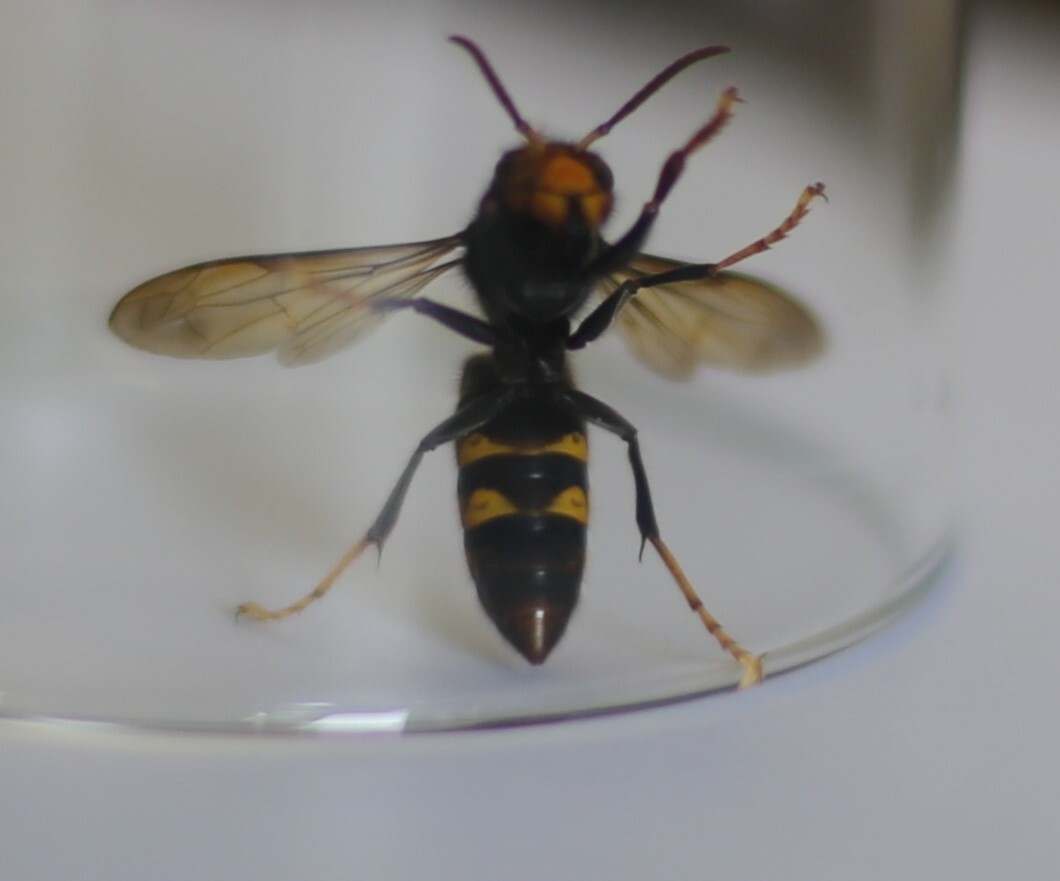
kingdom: Animalia
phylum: Arthropoda
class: Insecta
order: Hymenoptera
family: Vespidae
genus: Vespa
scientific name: Vespa velutina
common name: Asian hornet
